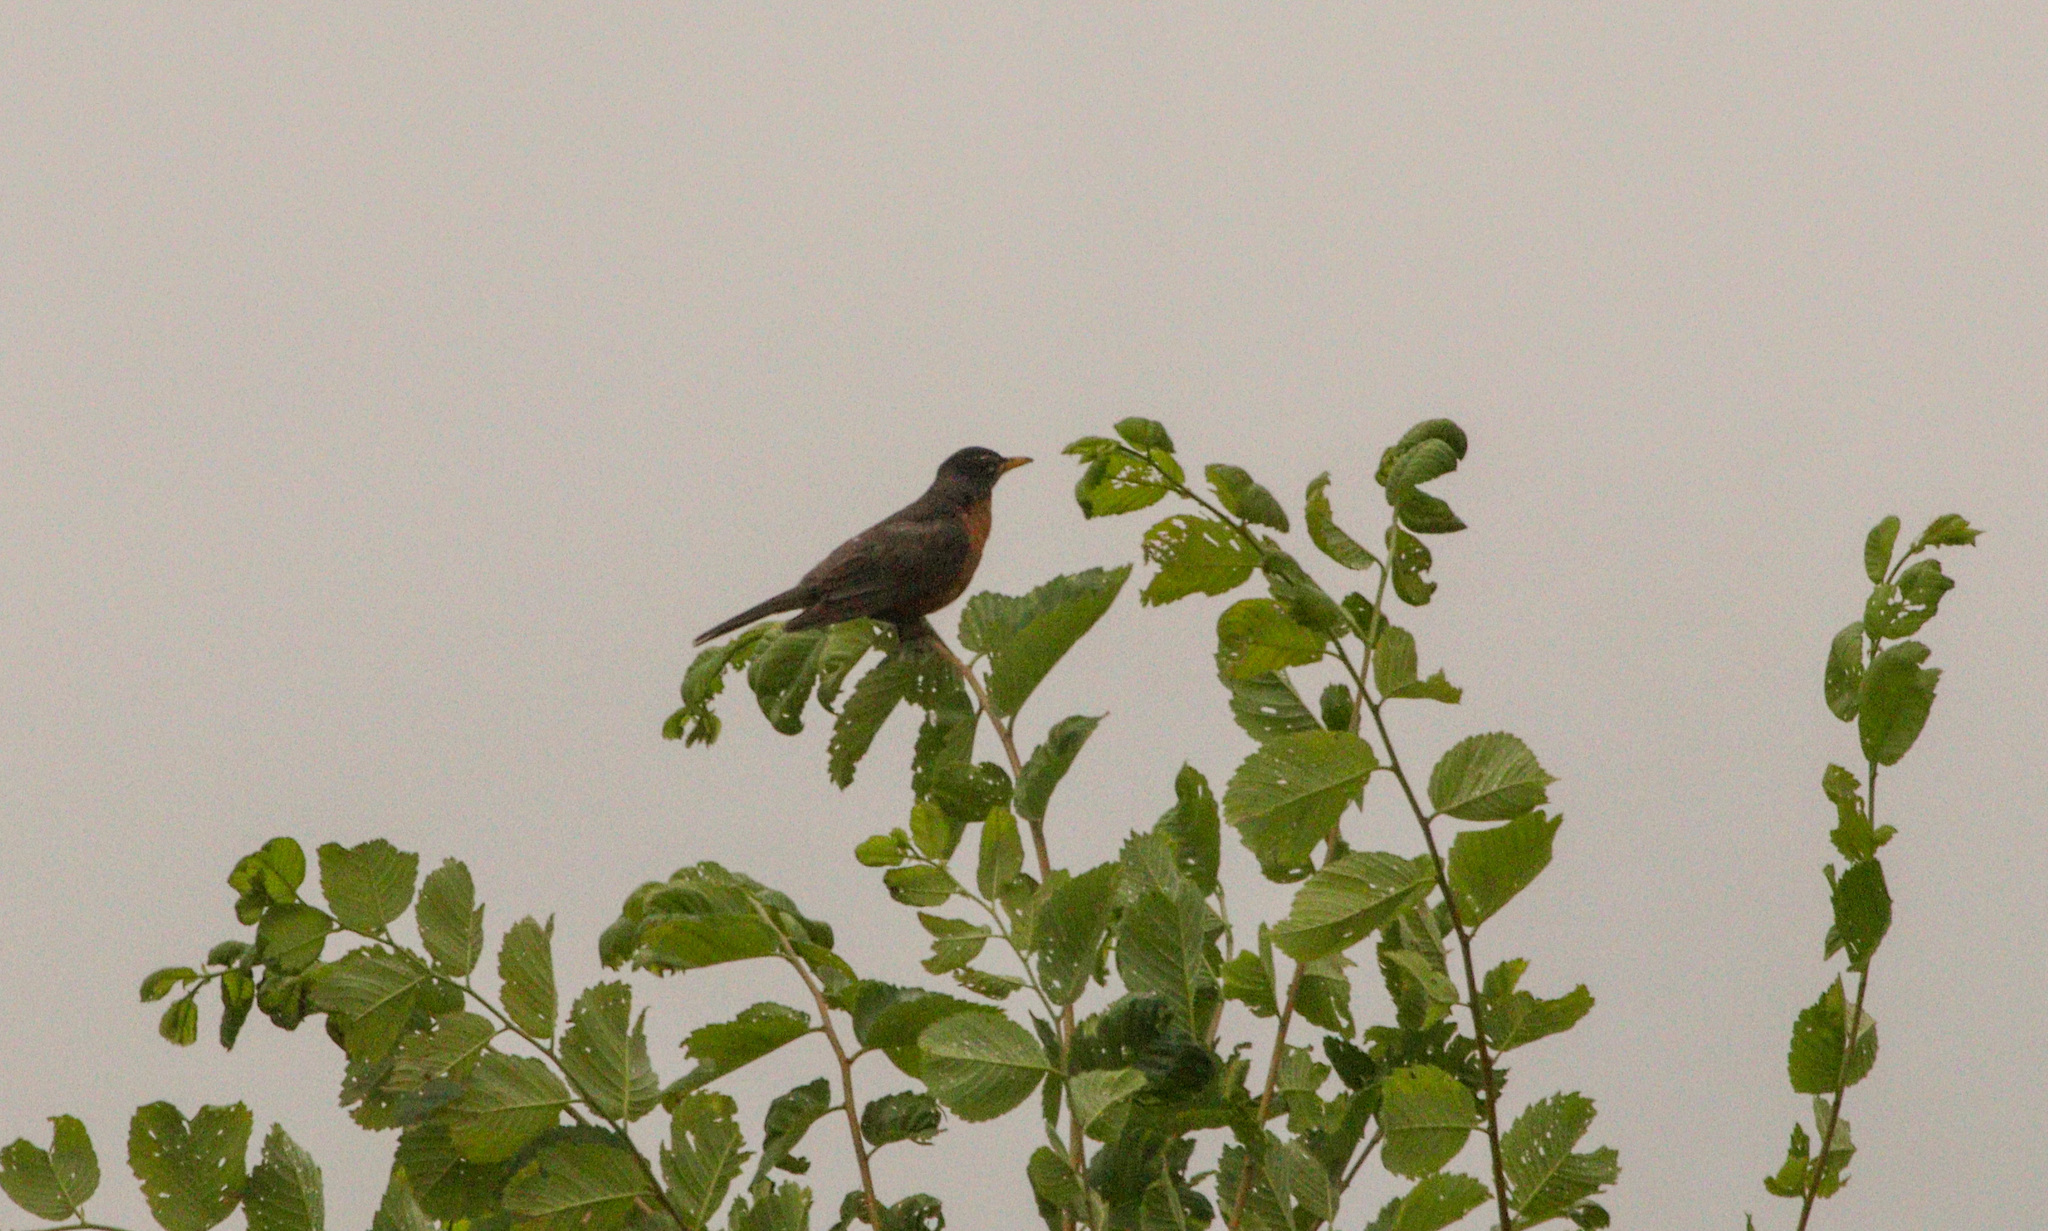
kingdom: Animalia
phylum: Chordata
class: Aves
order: Passeriformes
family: Turdidae
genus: Turdus
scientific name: Turdus migratorius
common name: American robin
